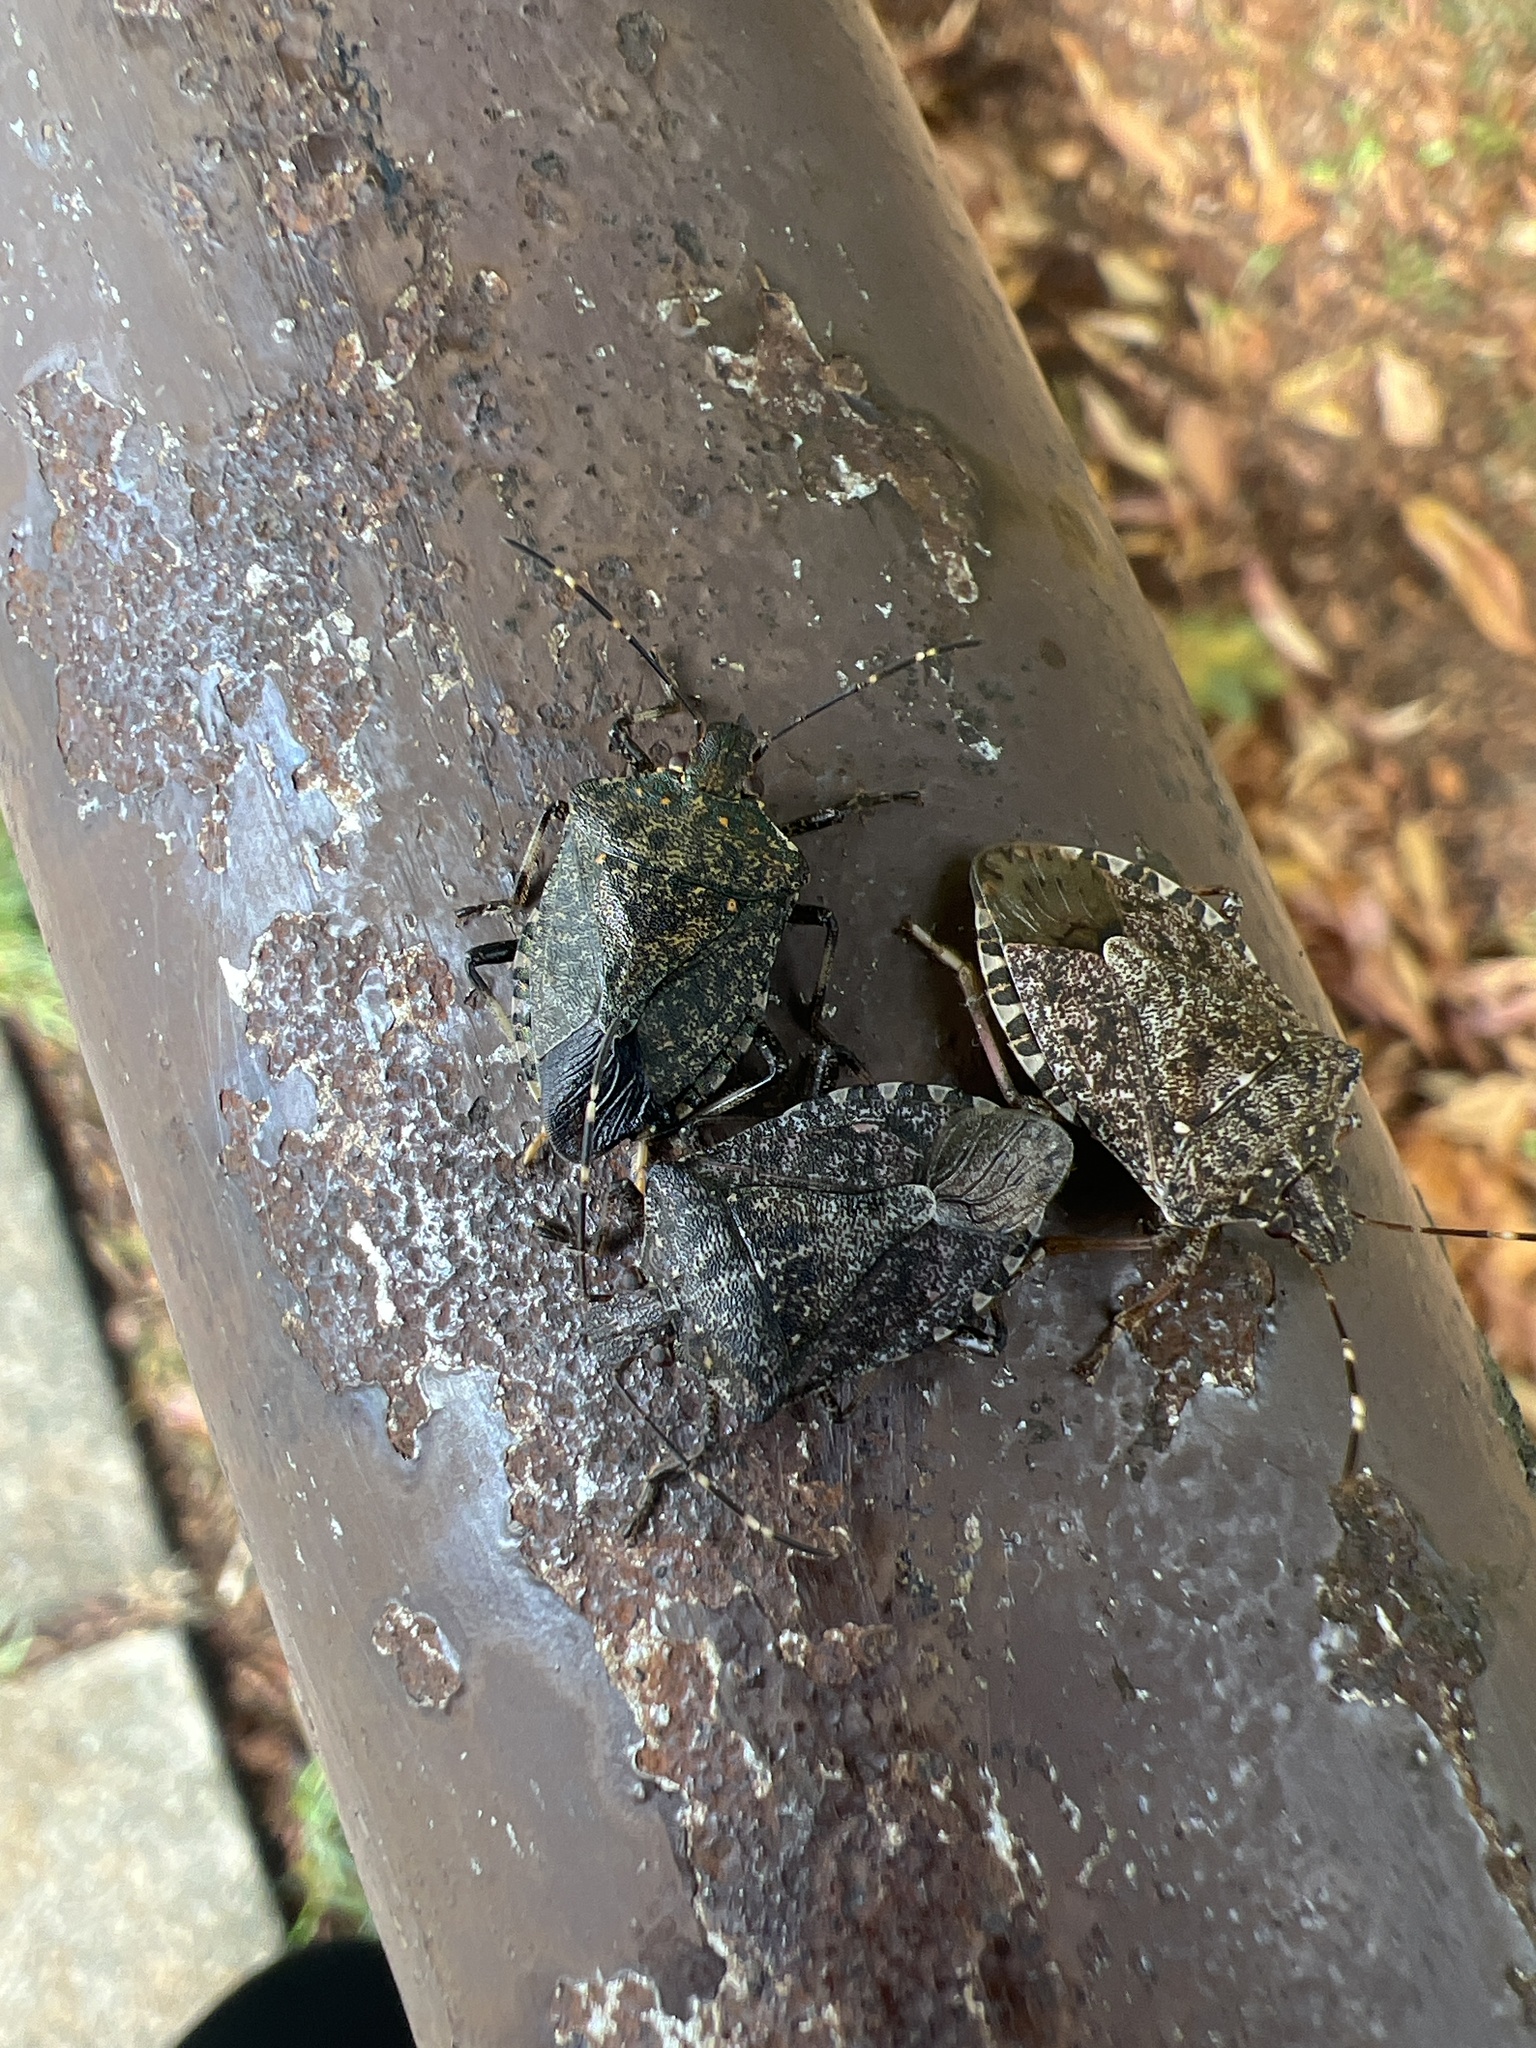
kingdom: Animalia
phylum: Arthropoda
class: Insecta
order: Hemiptera
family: Pentatomidae
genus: Halyomorpha
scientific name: Halyomorpha halys
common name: Brown marmorated stink bug
